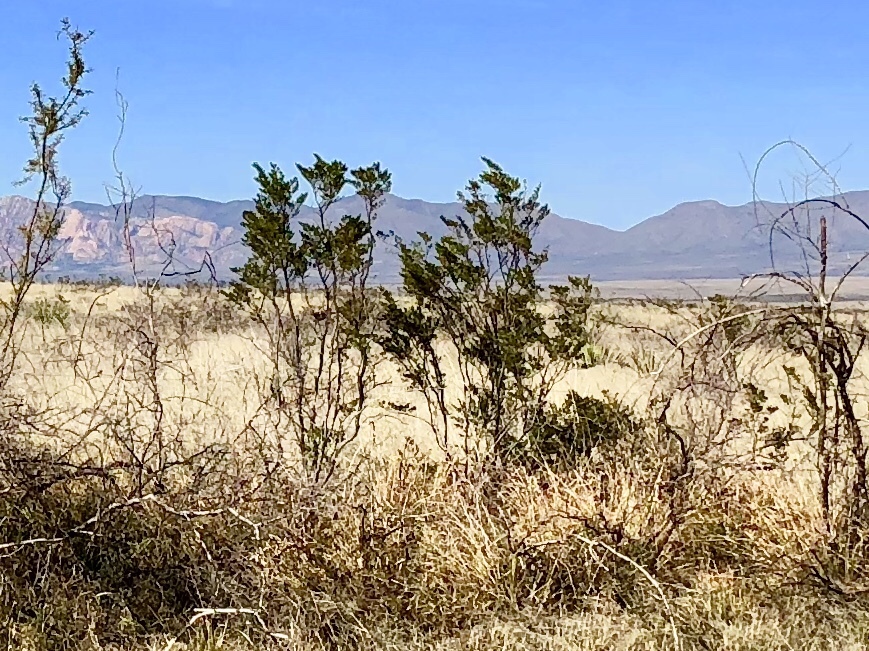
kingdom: Plantae
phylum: Tracheophyta
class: Magnoliopsida
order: Zygophyllales
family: Zygophyllaceae
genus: Larrea
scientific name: Larrea tridentata
